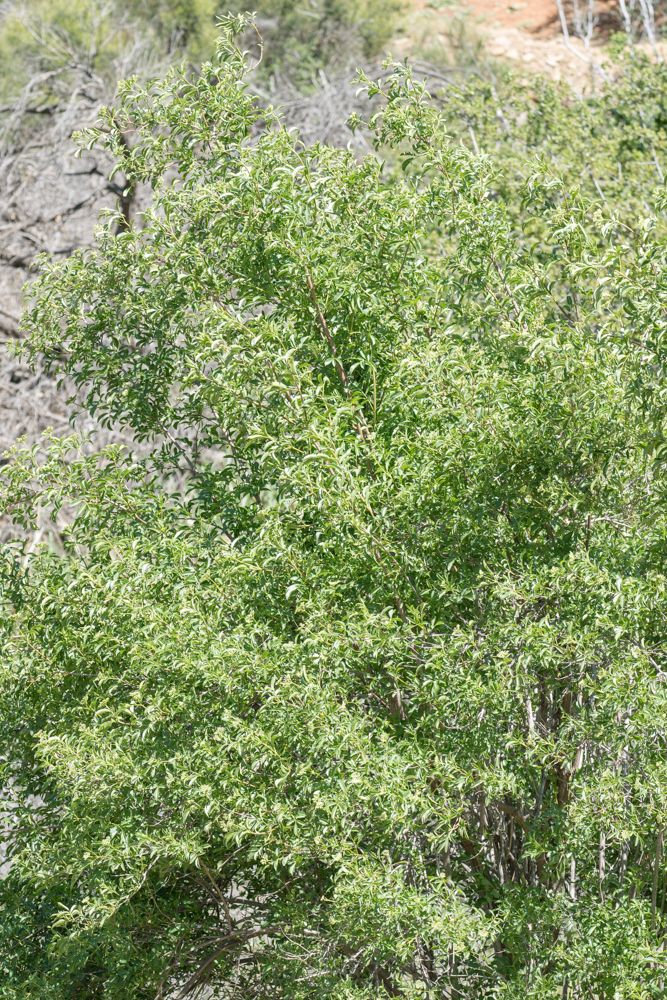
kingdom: Plantae
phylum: Tracheophyta
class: Magnoliopsida
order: Dipsacales
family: Viburnaceae
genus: Sambucus
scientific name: Sambucus cerulea
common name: Blue elder
